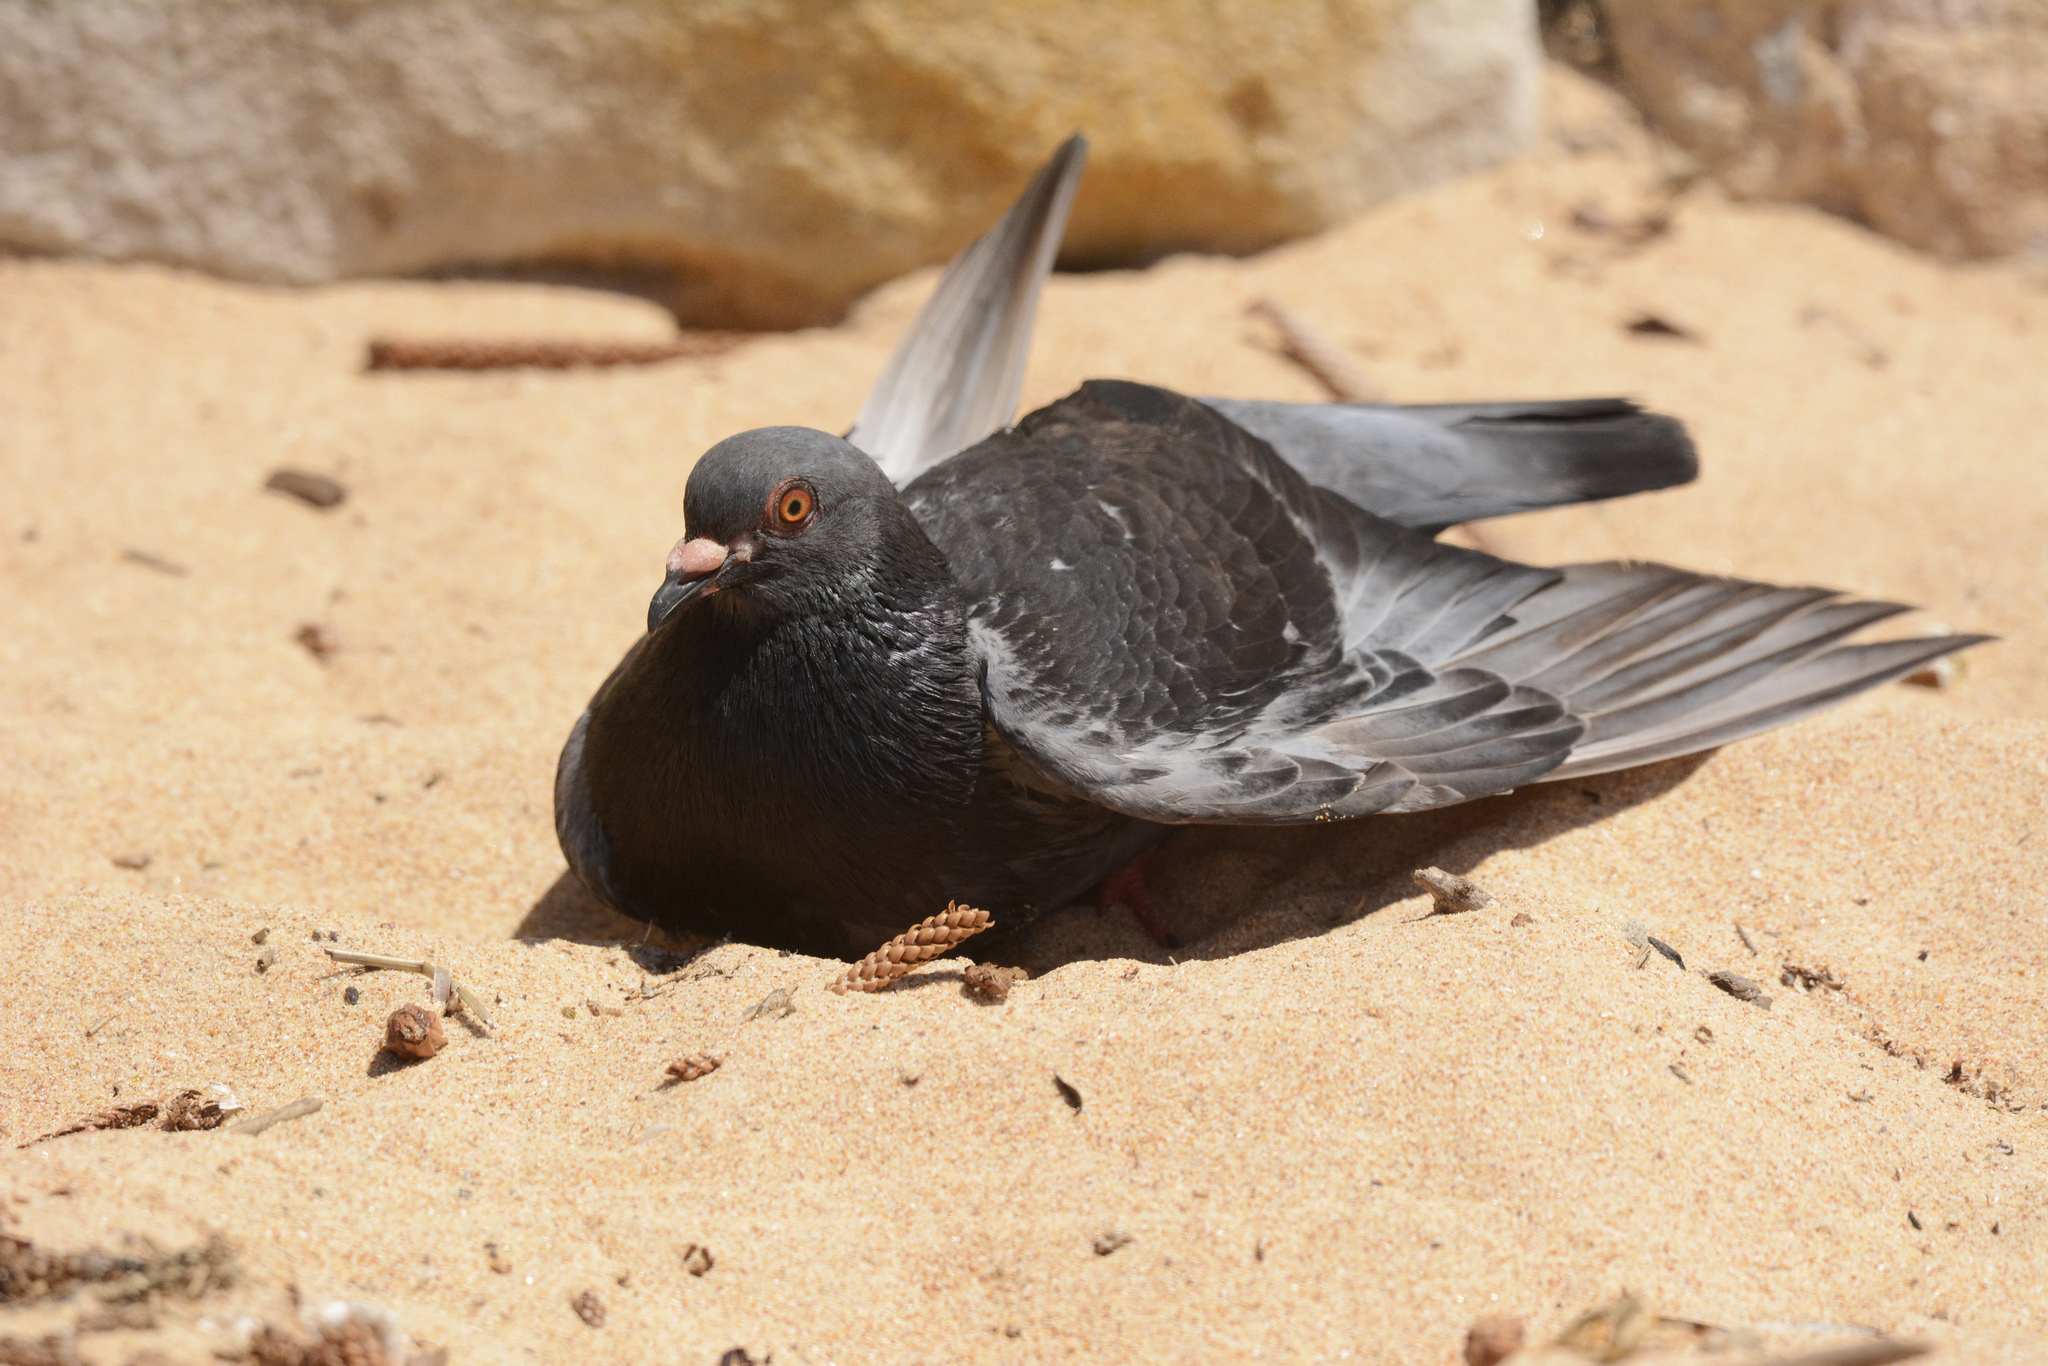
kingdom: Animalia
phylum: Chordata
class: Aves
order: Columbiformes
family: Columbidae
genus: Columba
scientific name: Columba livia
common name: Rock pigeon
